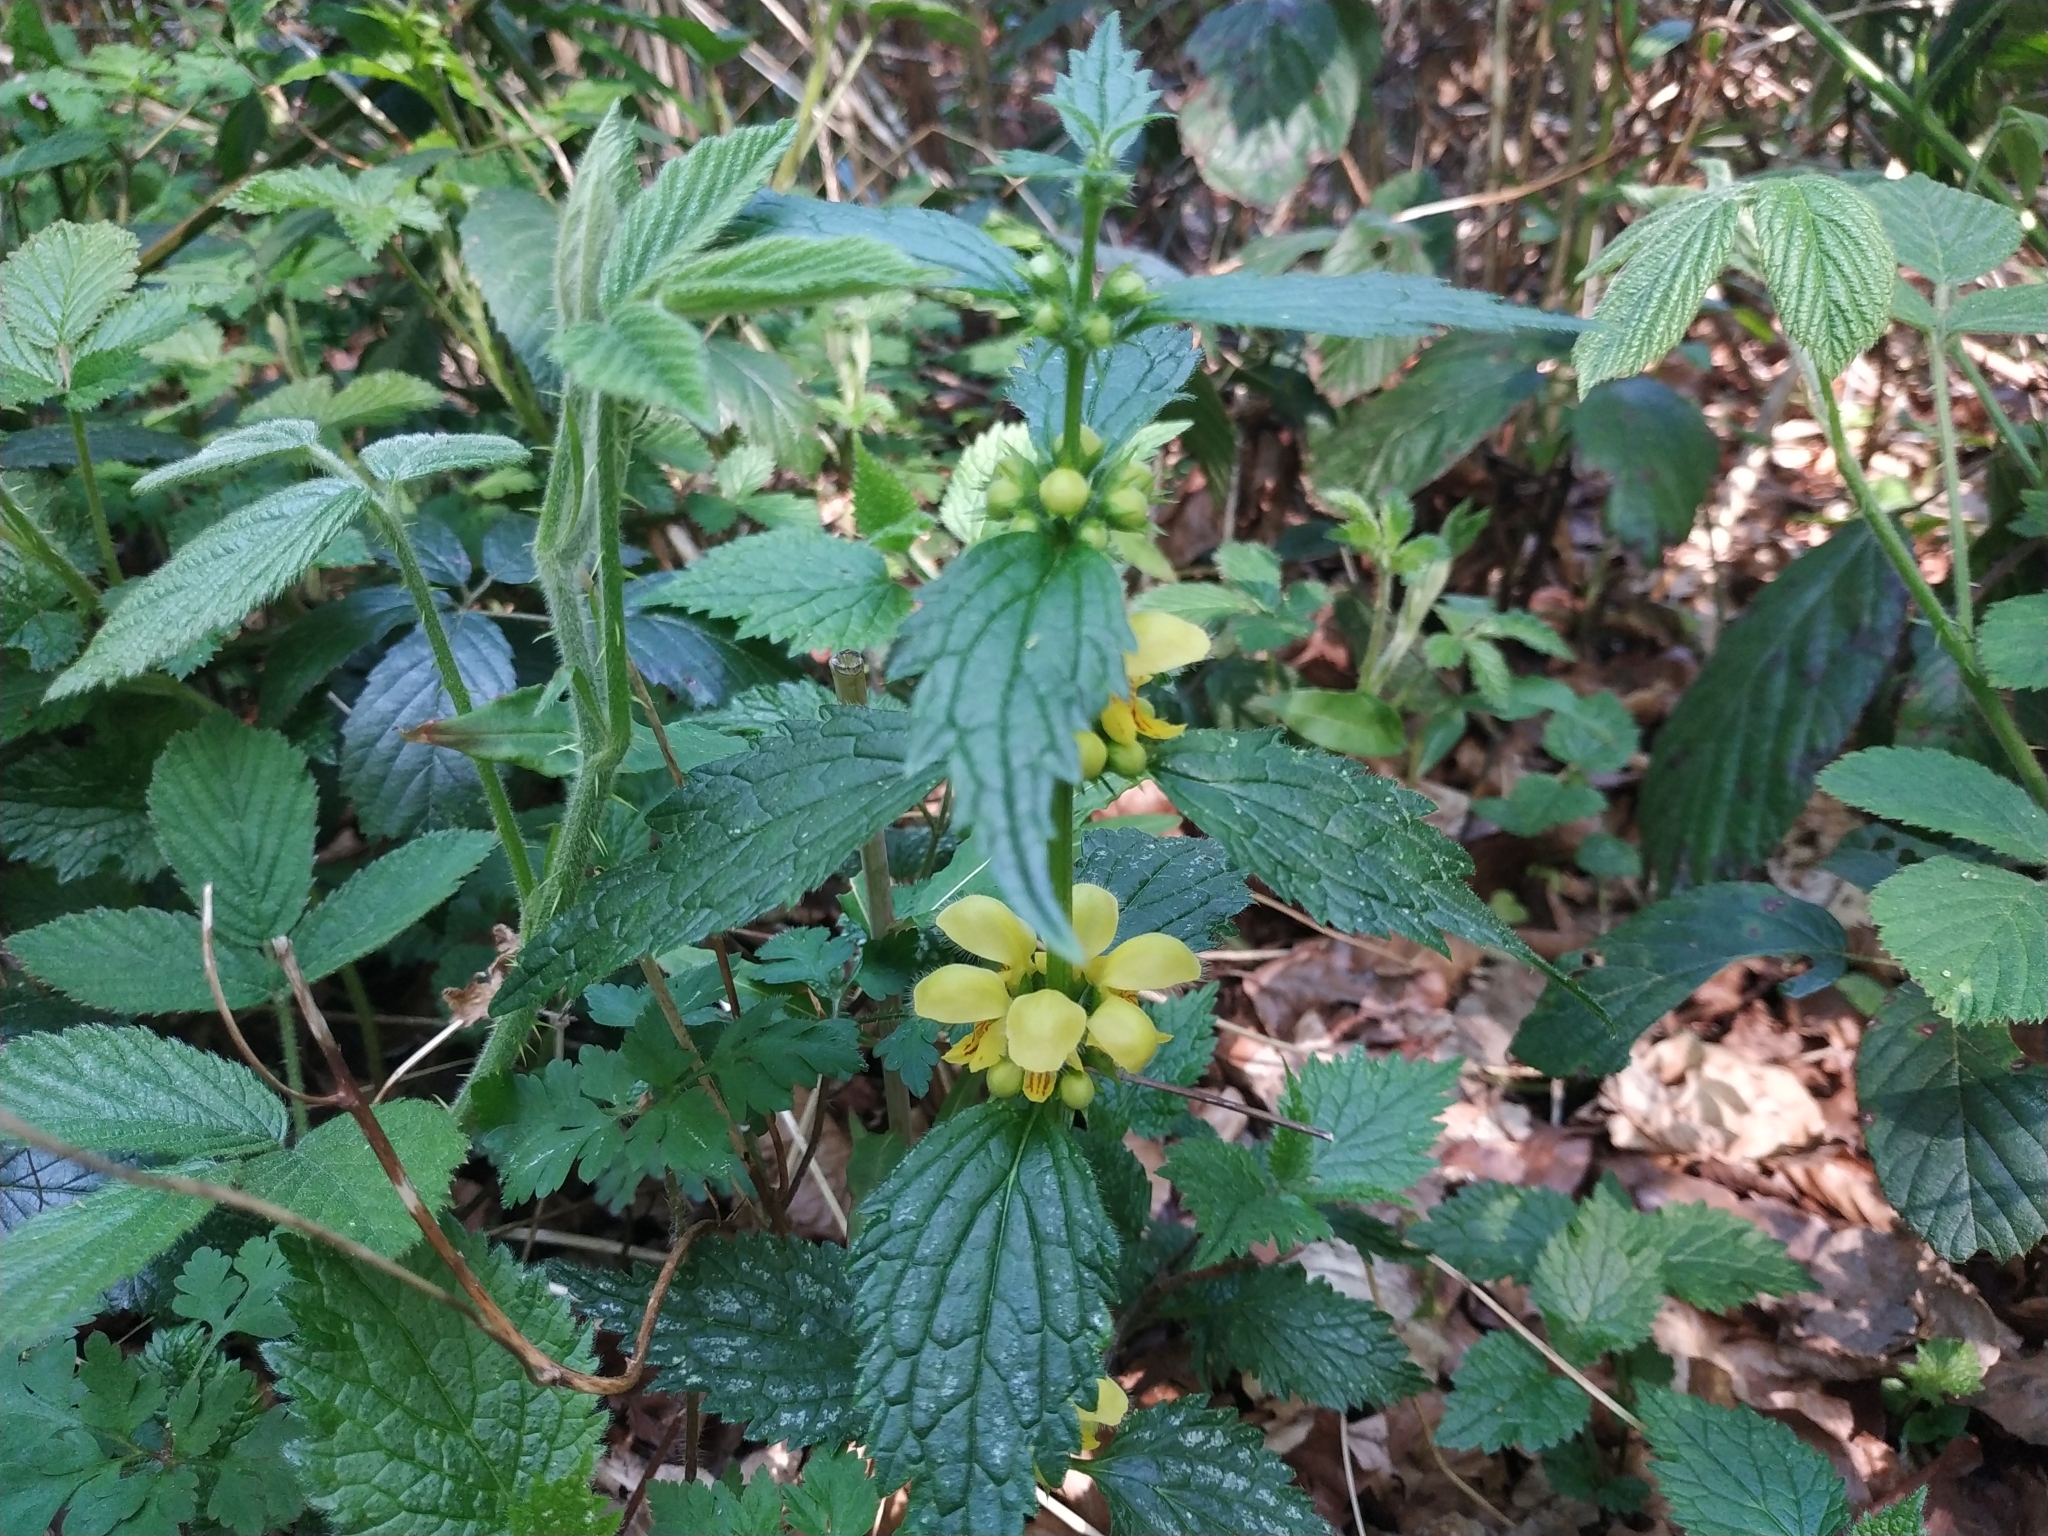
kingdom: Plantae
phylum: Tracheophyta
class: Magnoliopsida
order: Lamiales
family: Lamiaceae
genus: Lamium
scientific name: Lamium galeobdolon
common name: Yellow archangel
